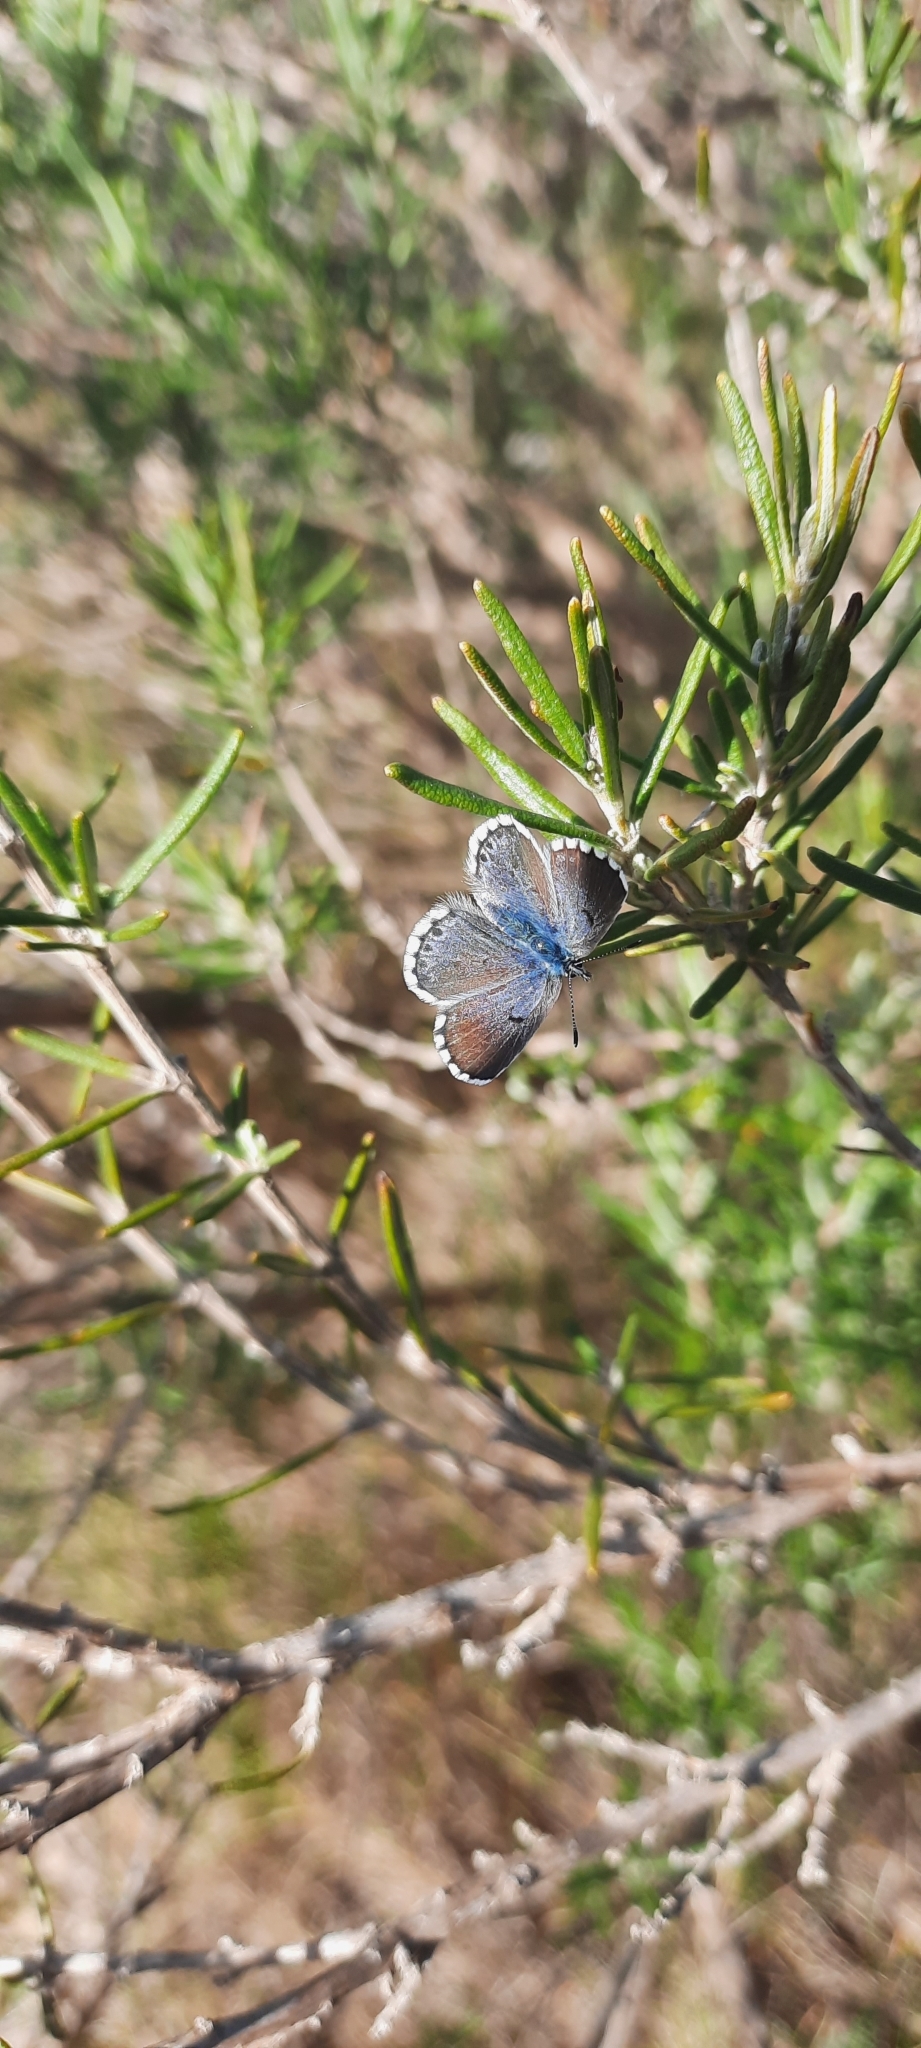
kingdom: Animalia
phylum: Arthropoda
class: Insecta
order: Lepidoptera
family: Lycaenidae
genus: Pseudophilotes
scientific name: Pseudophilotes baton
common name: Baton blue
